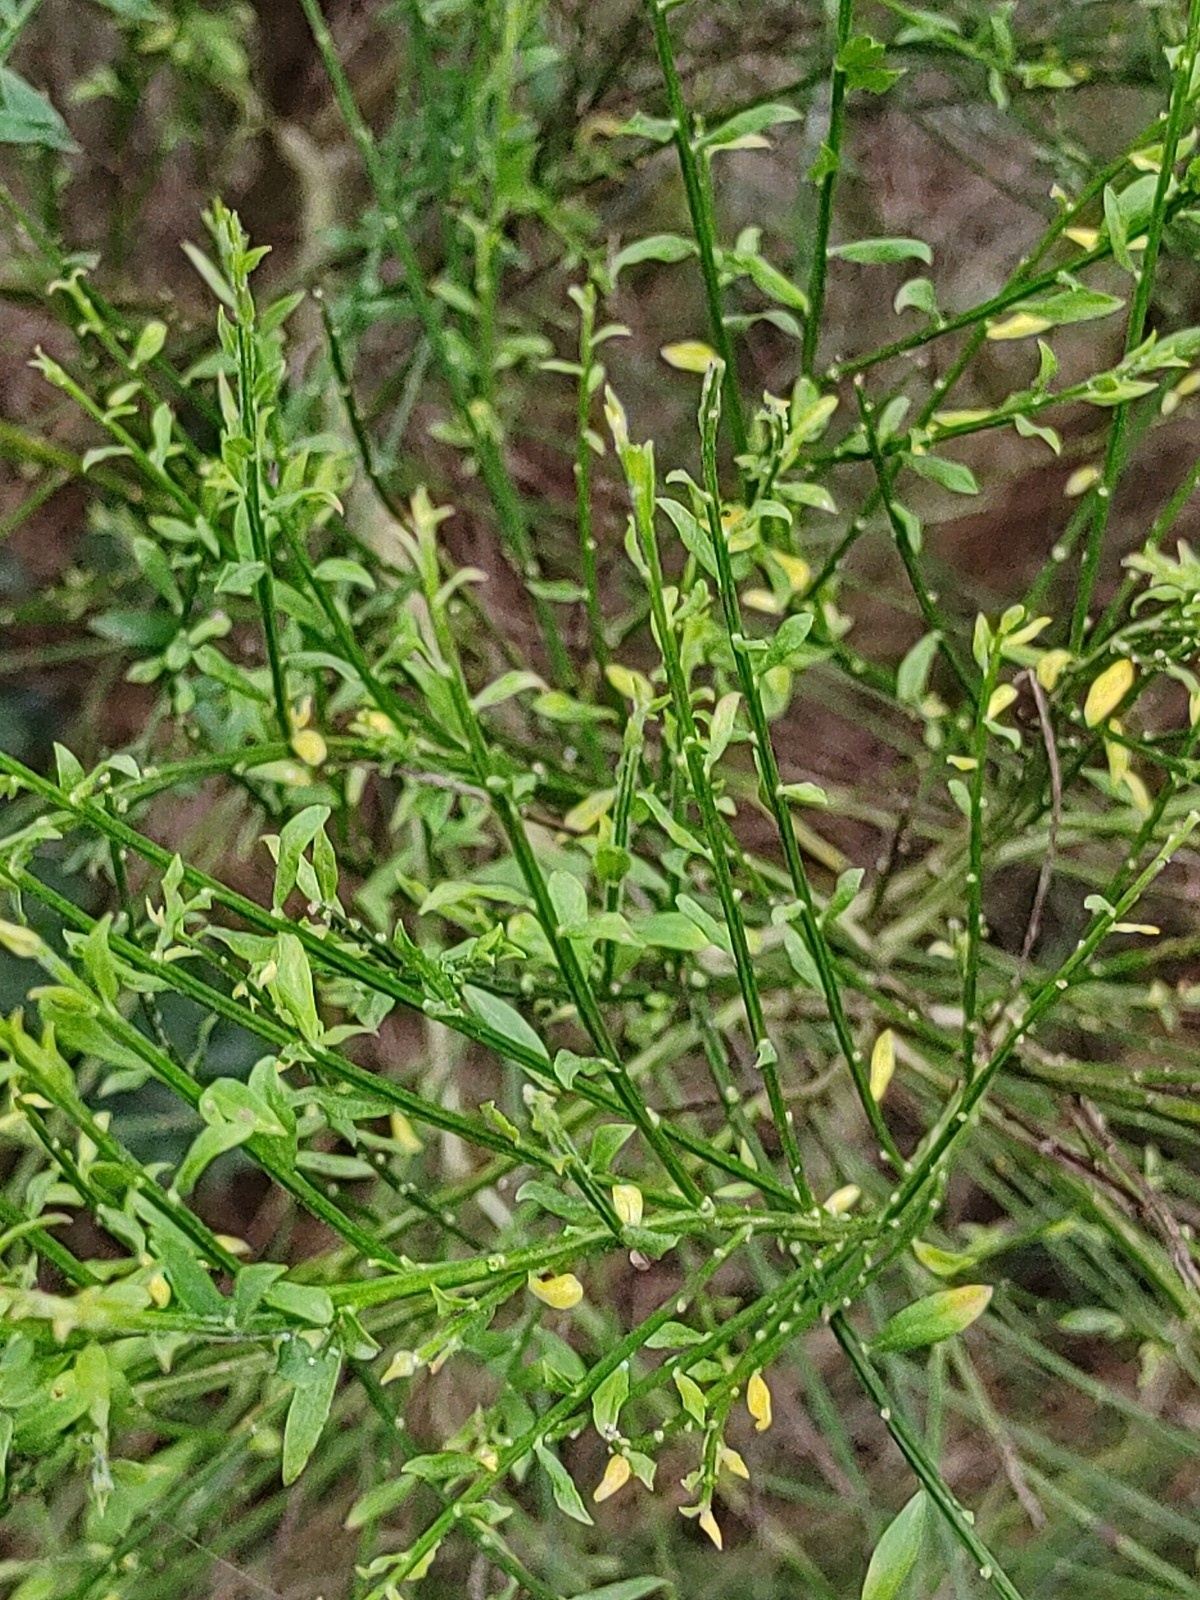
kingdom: Plantae
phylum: Tracheophyta
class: Magnoliopsida
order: Fabales
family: Fabaceae
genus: Cytisus
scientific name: Cytisus scoparius
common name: Scotch broom
